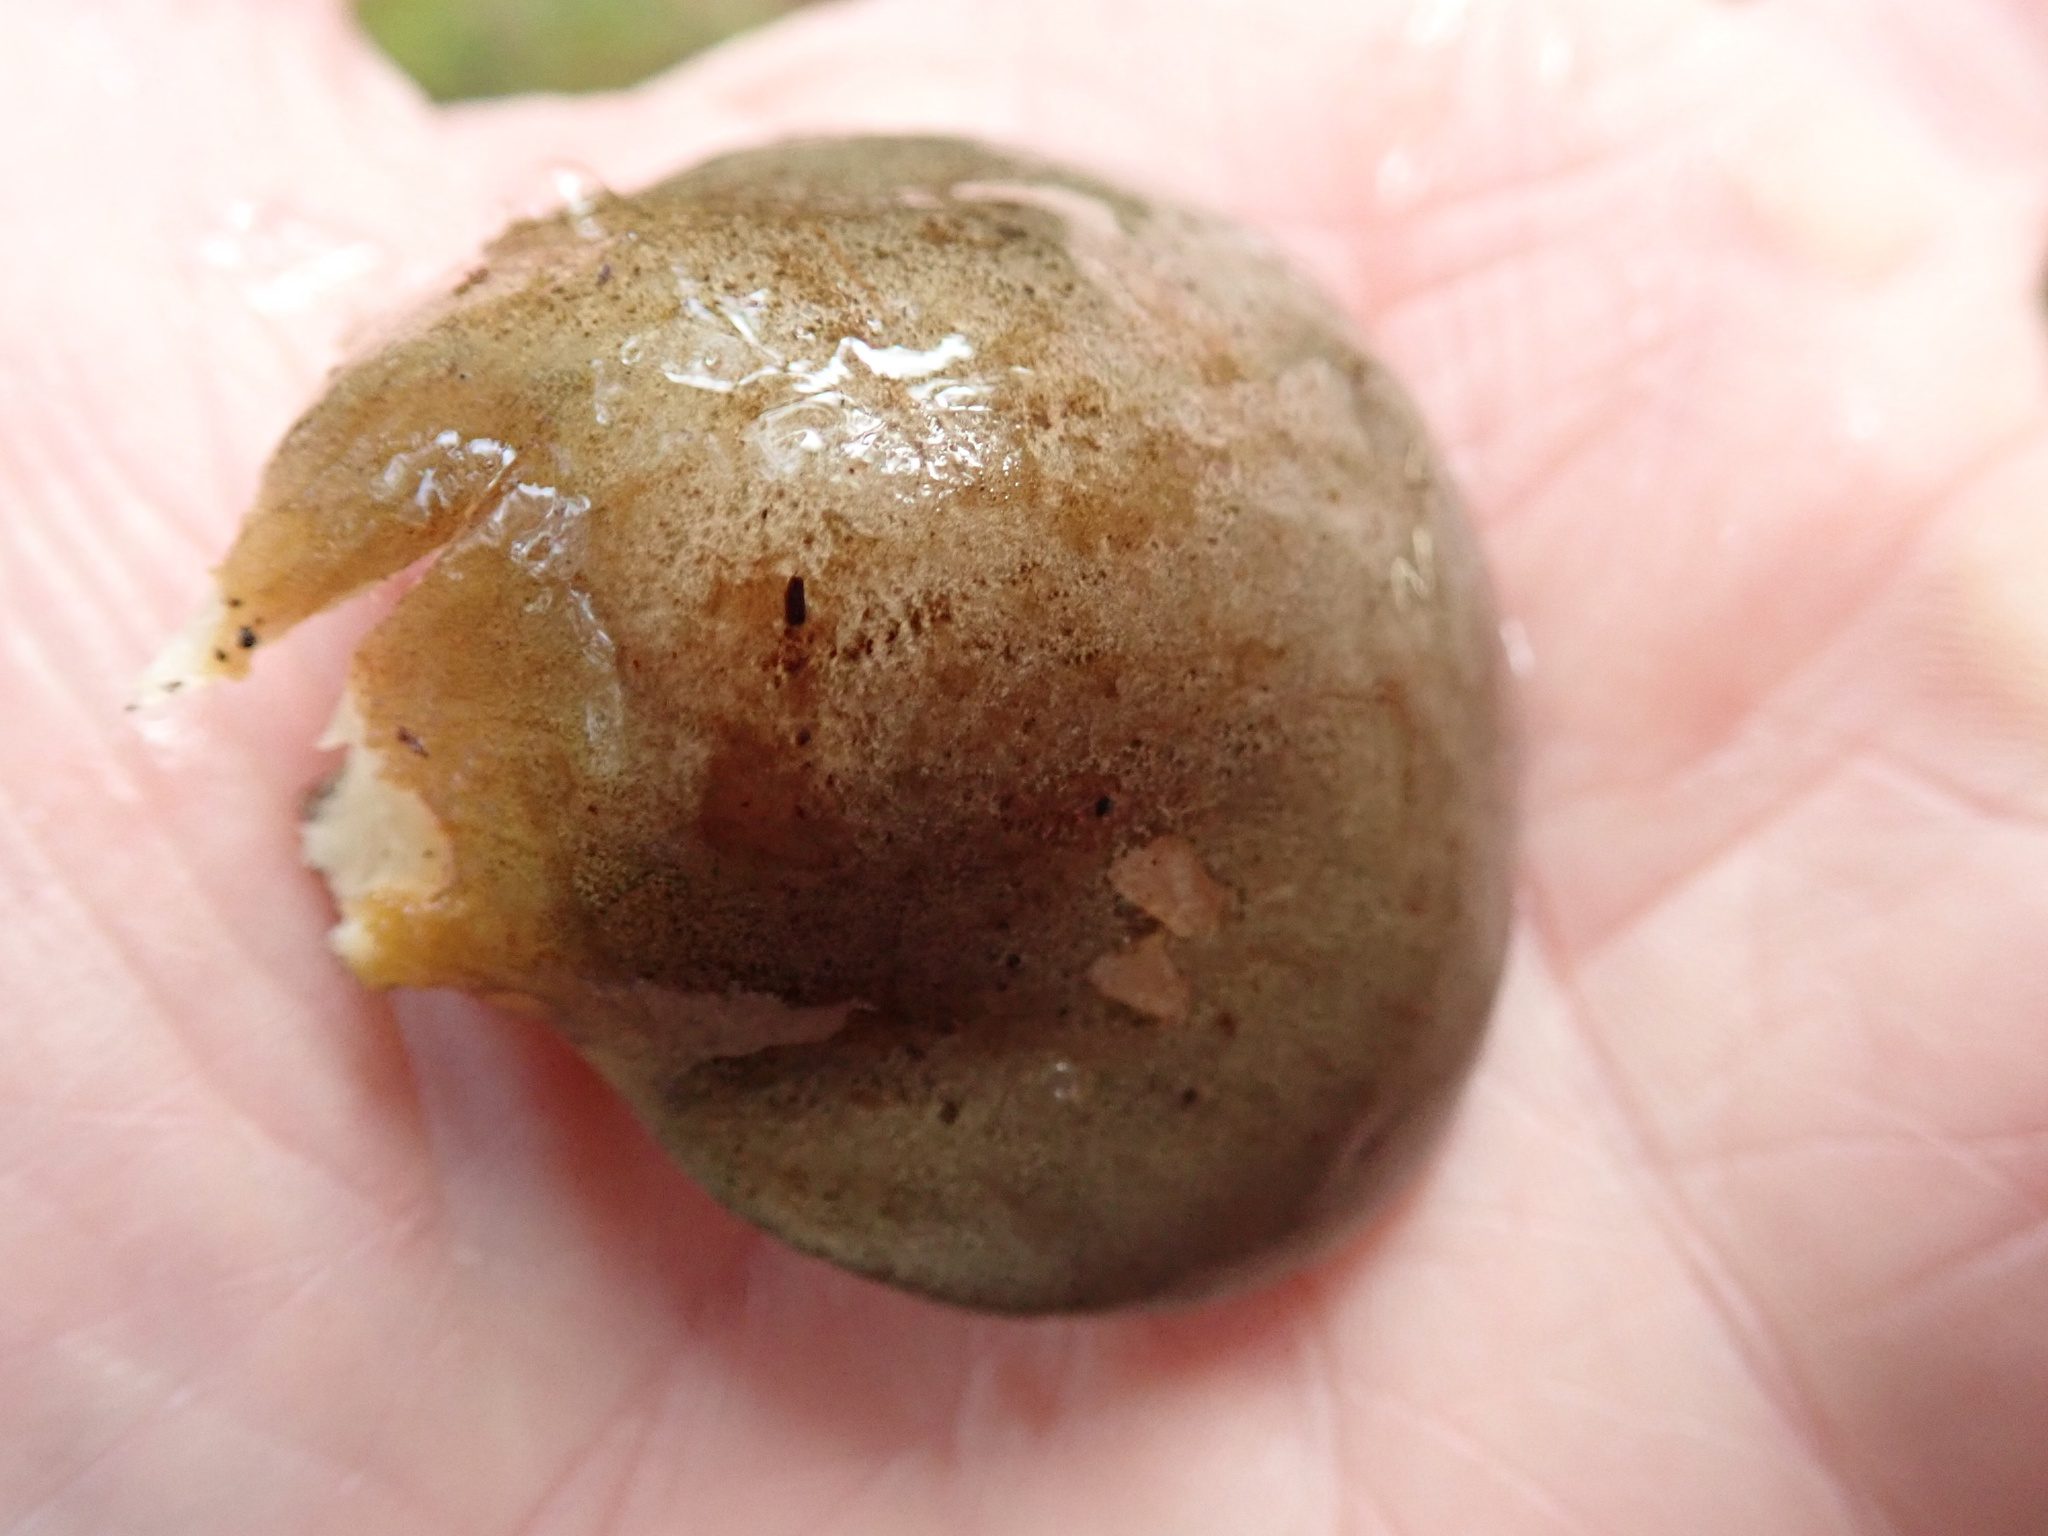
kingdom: Fungi
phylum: Basidiomycota
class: Agaricomycetes
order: Agaricales
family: Sarcomyxaceae
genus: Sarcomyxa
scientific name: Sarcomyxa serotina
